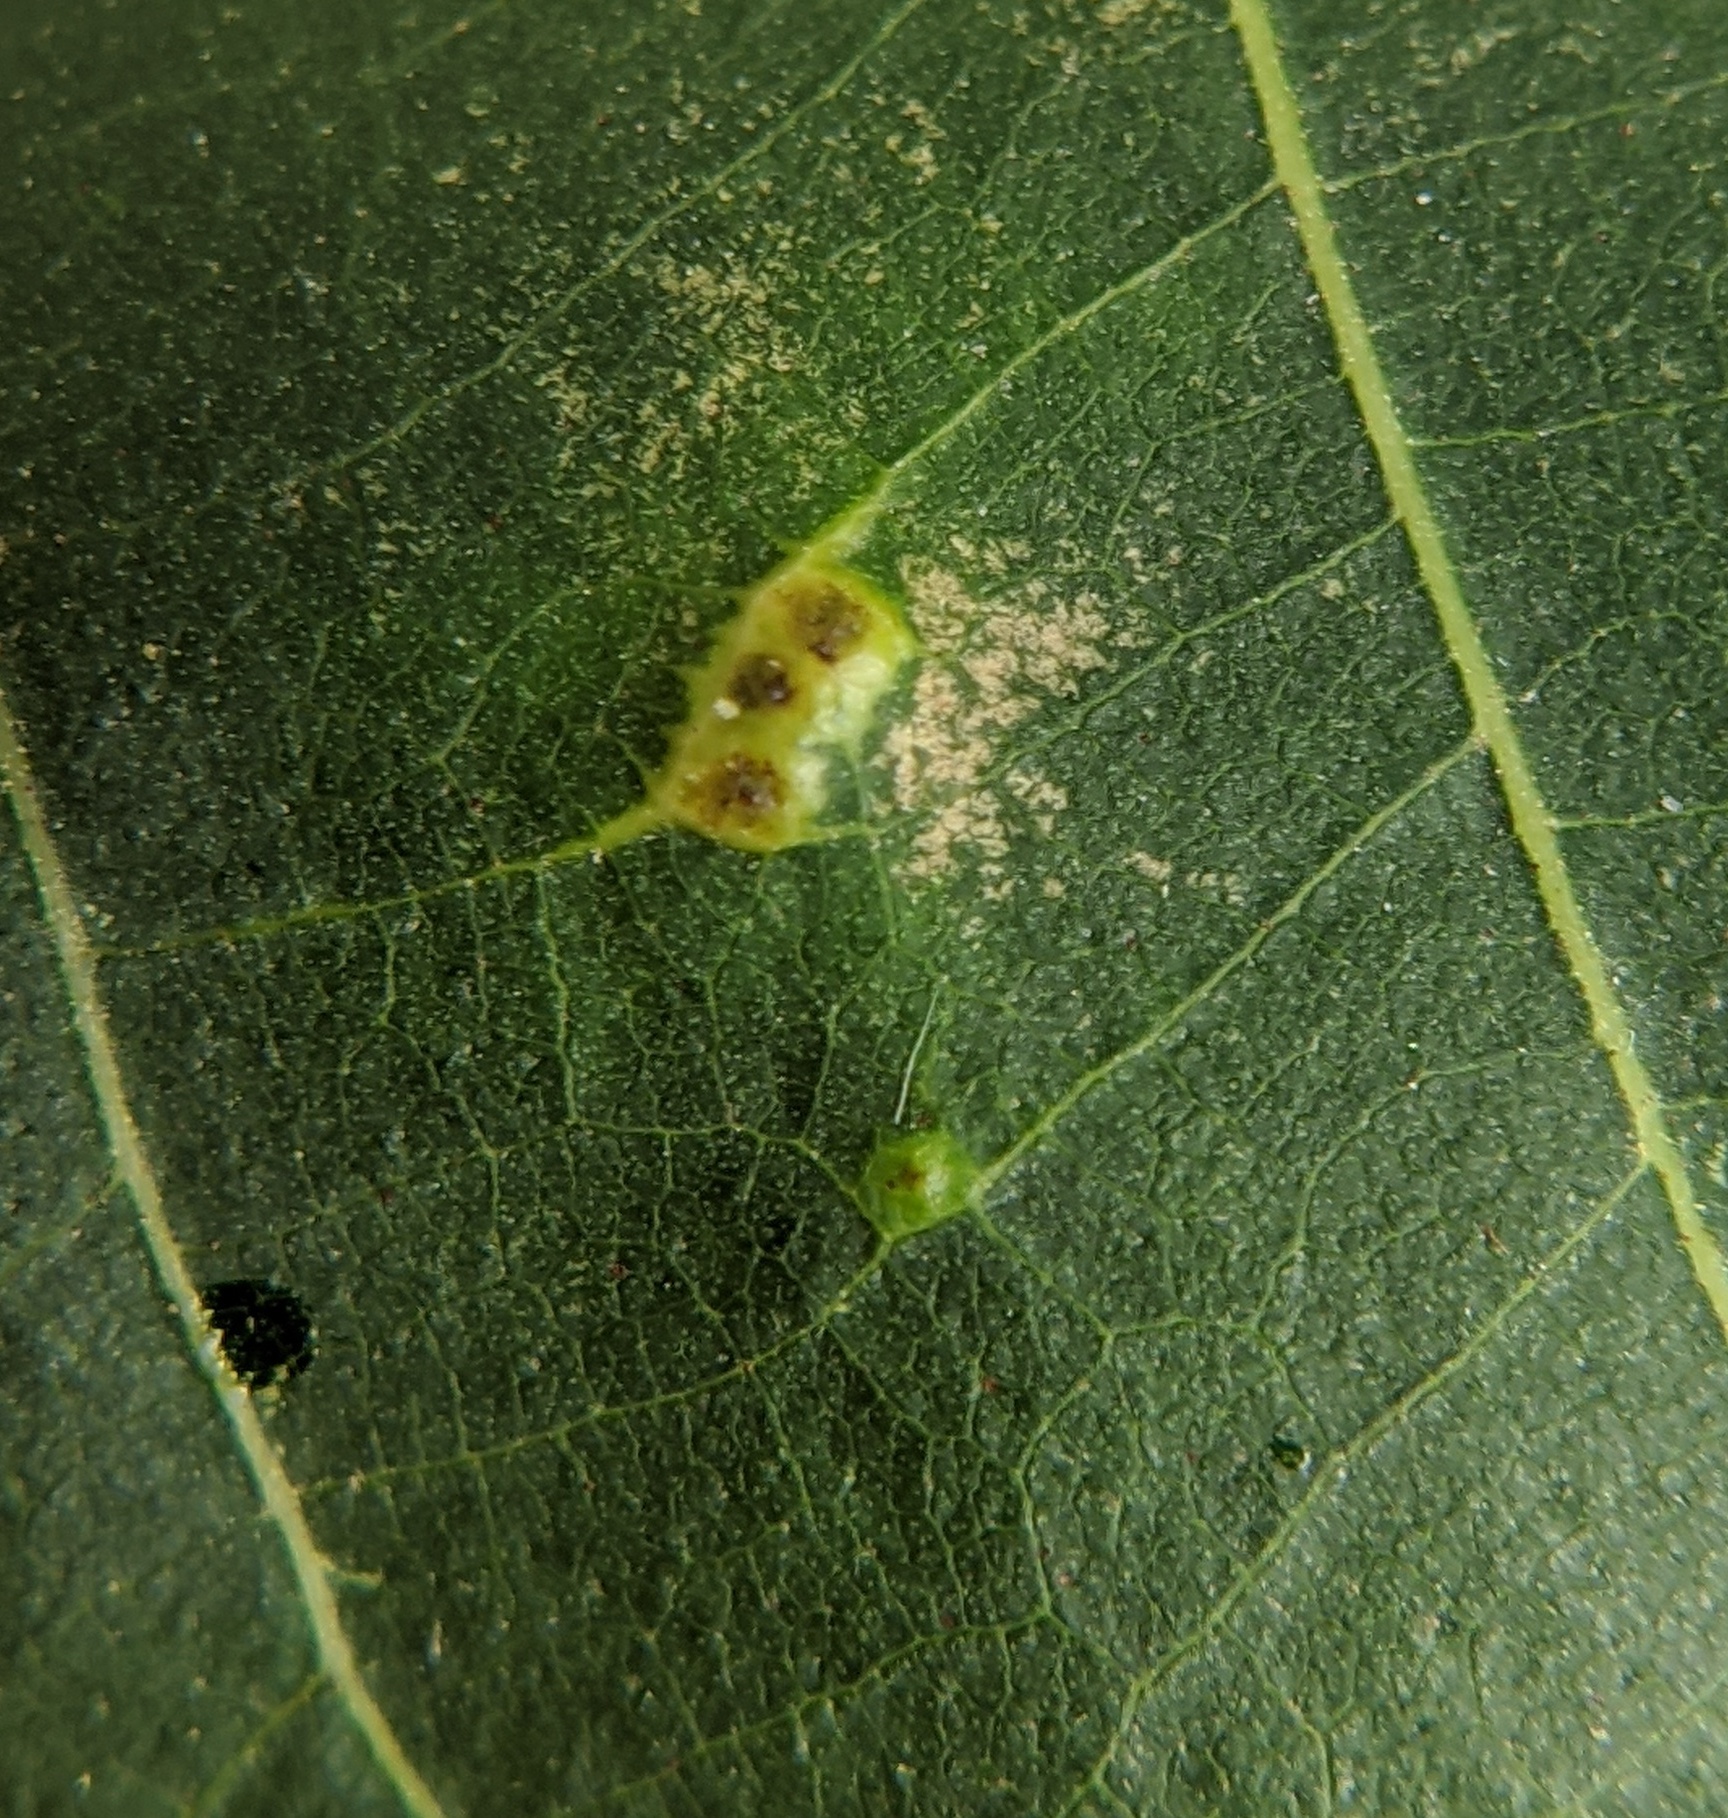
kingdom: Animalia
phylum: Arthropoda
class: Insecta
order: Diptera
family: Cecidomyiidae
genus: Caryomyia
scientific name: Caryomyia inclinata
